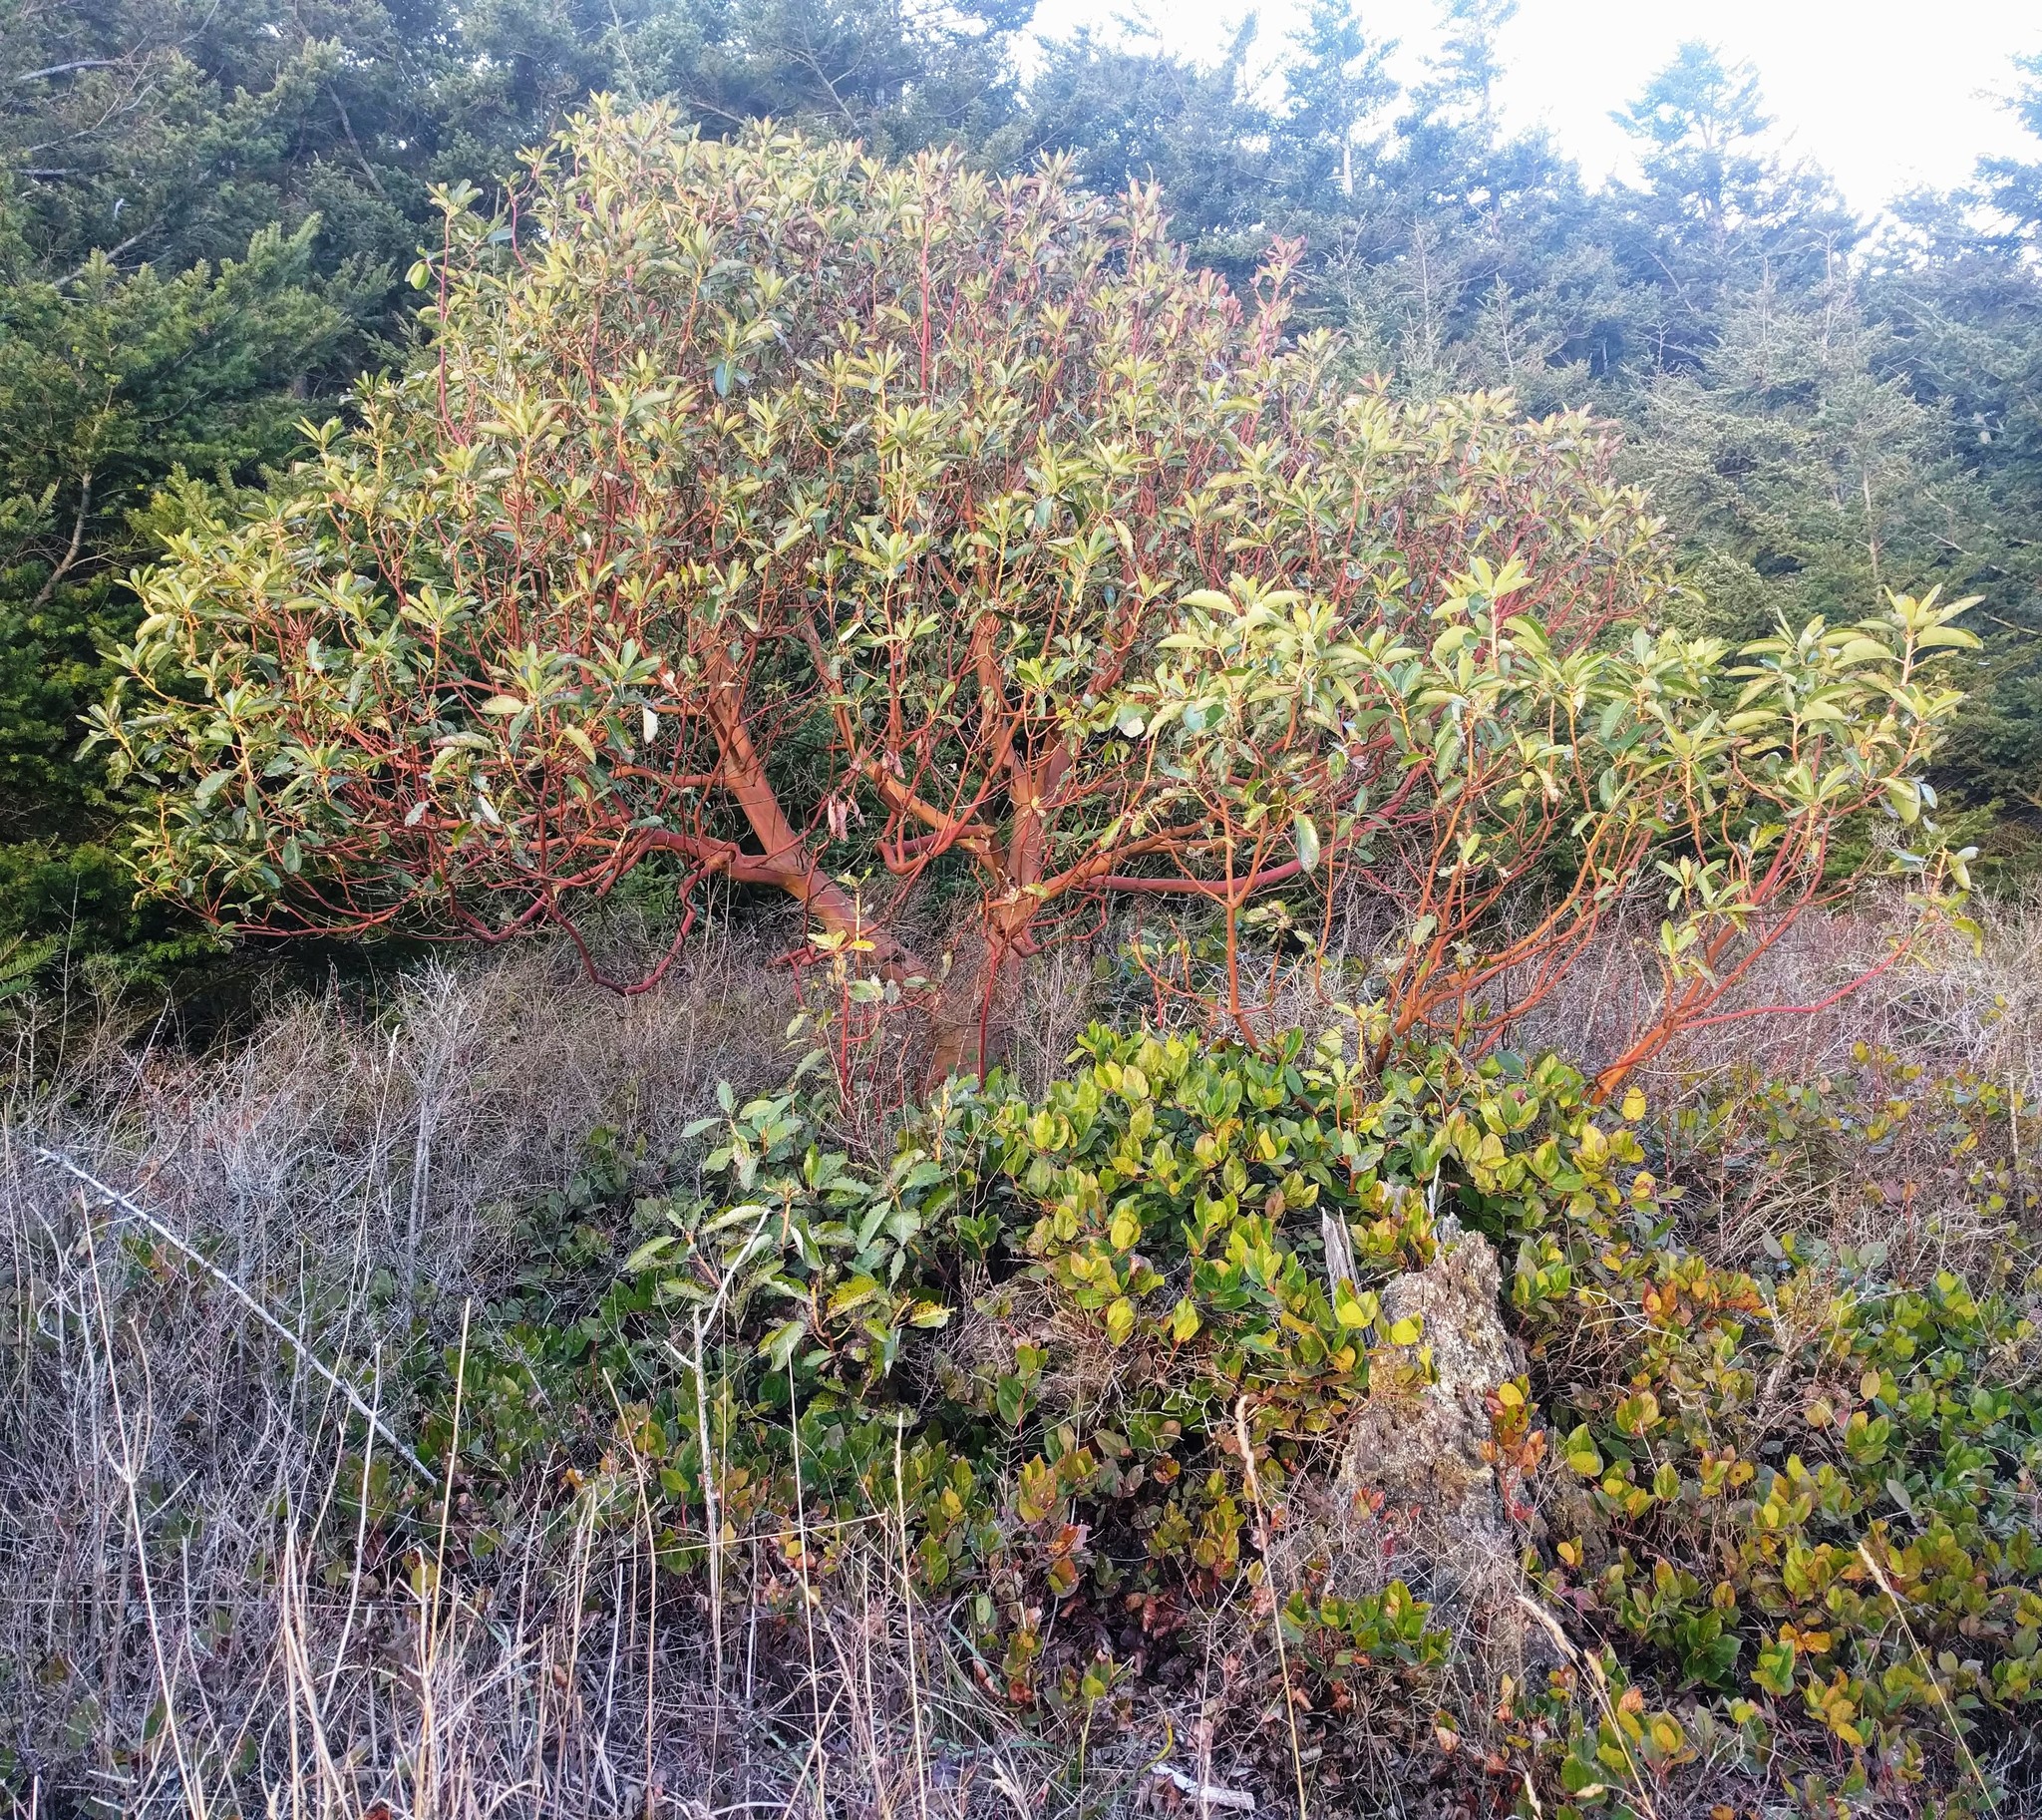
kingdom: Plantae
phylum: Tracheophyta
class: Magnoliopsida
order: Ericales
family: Ericaceae
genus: Arbutus
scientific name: Arbutus menziesii
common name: Pacific madrone
